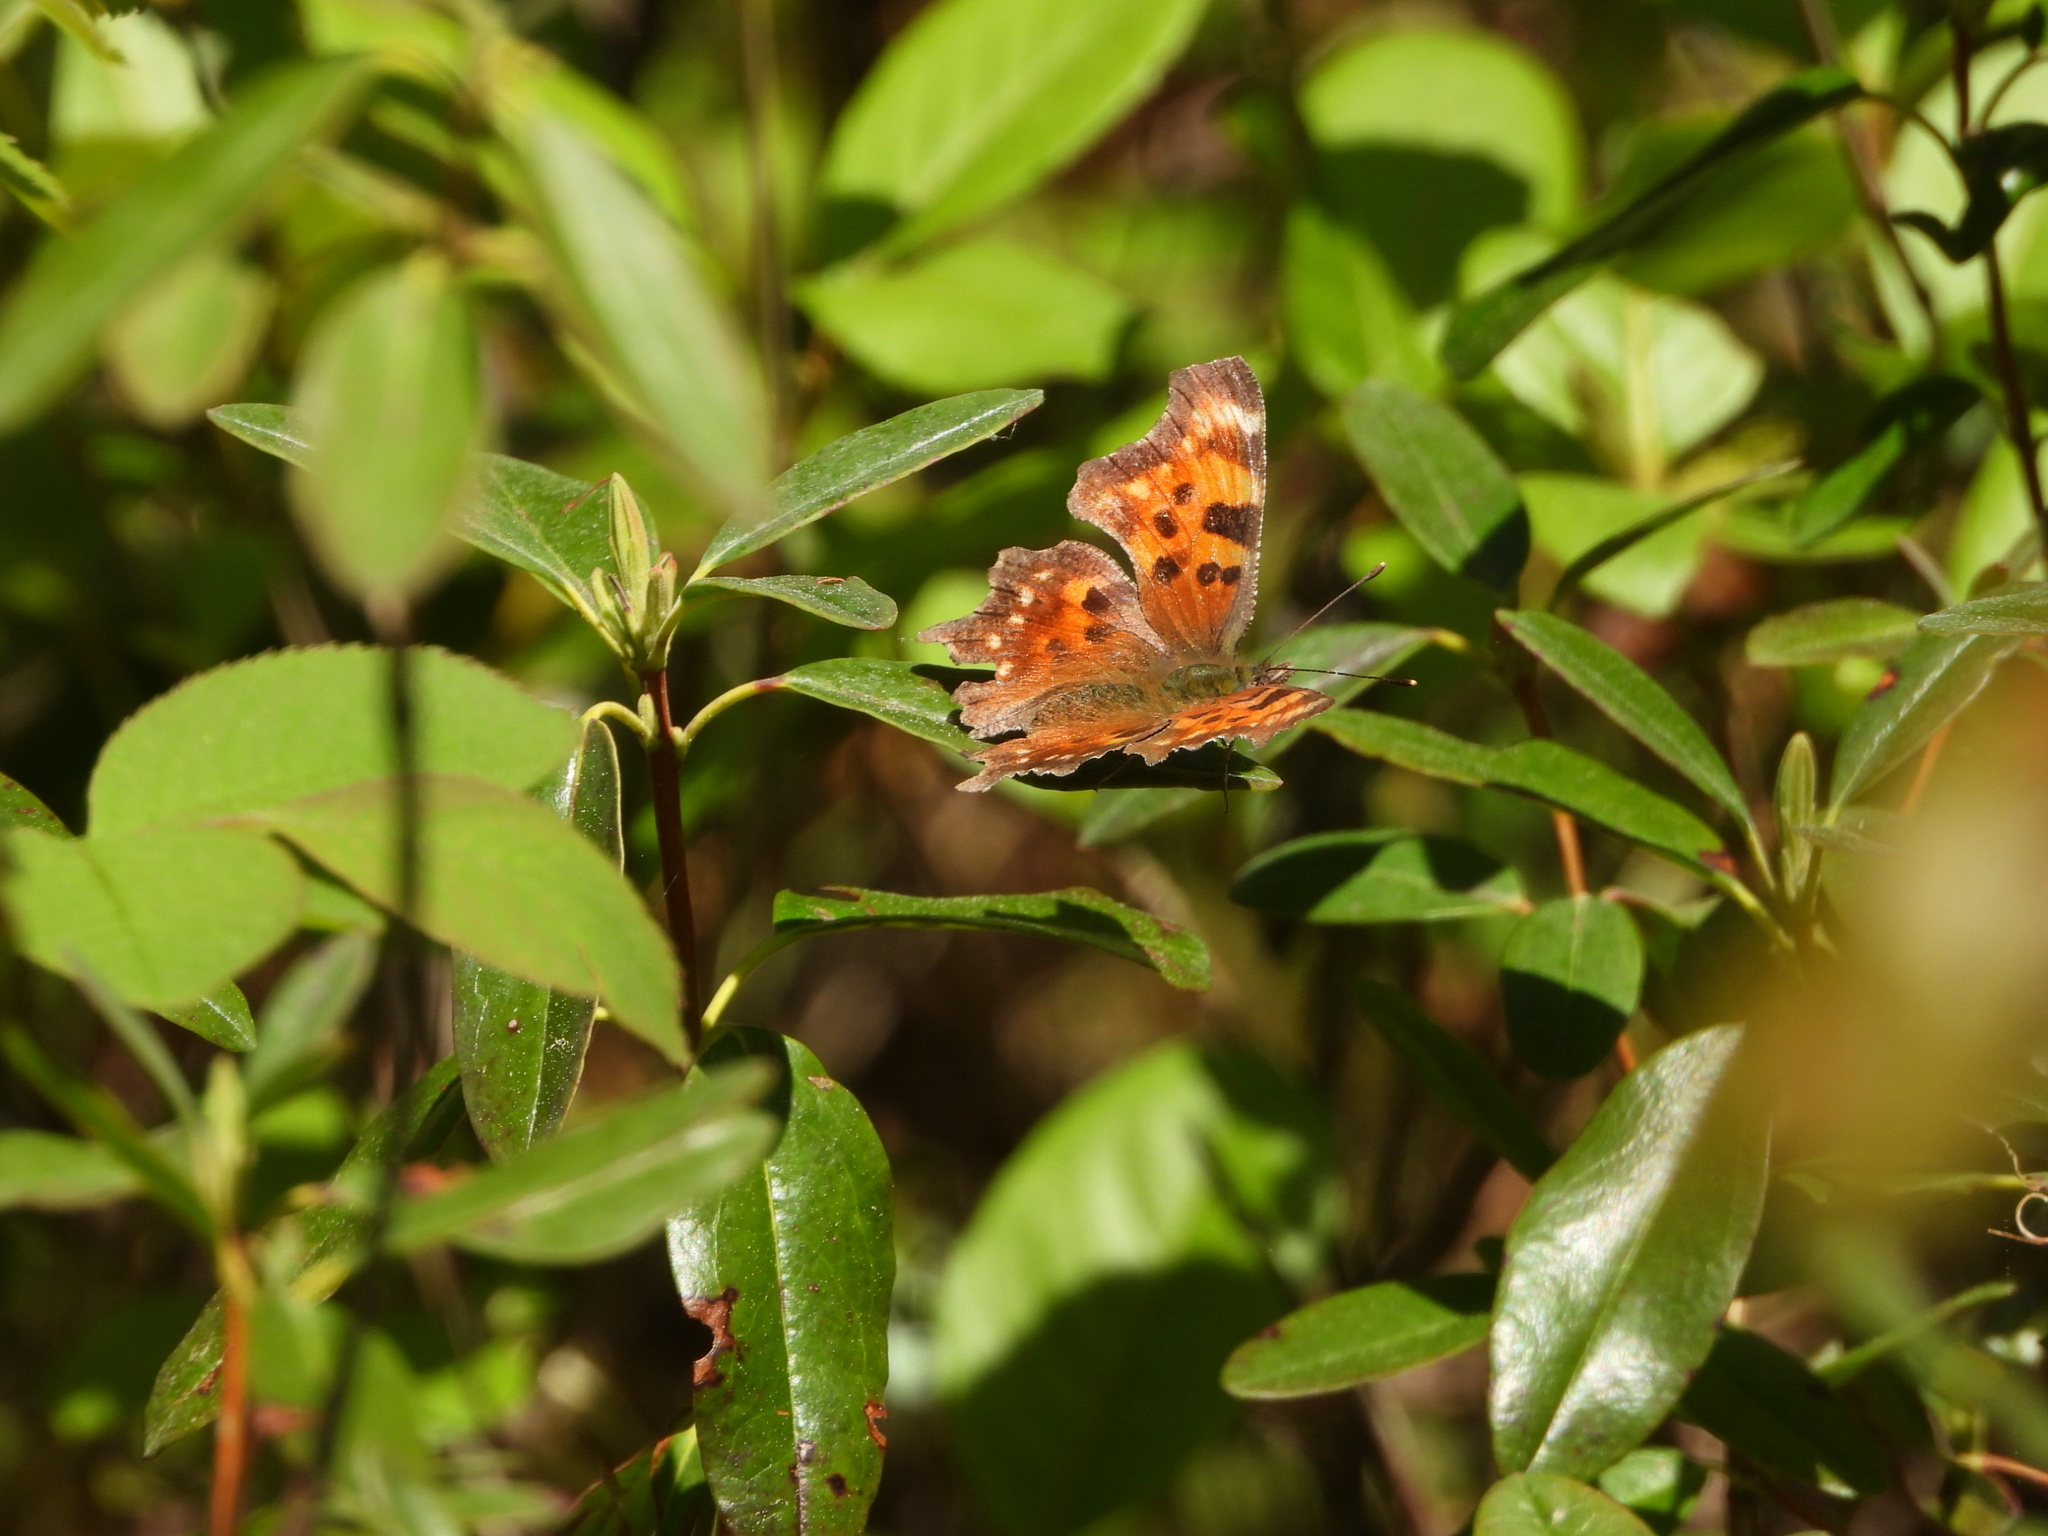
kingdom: Animalia
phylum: Arthropoda
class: Insecta
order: Lepidoptera
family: Nymphalidae
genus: Polygonia
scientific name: Polygonia faunus
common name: Green comma
